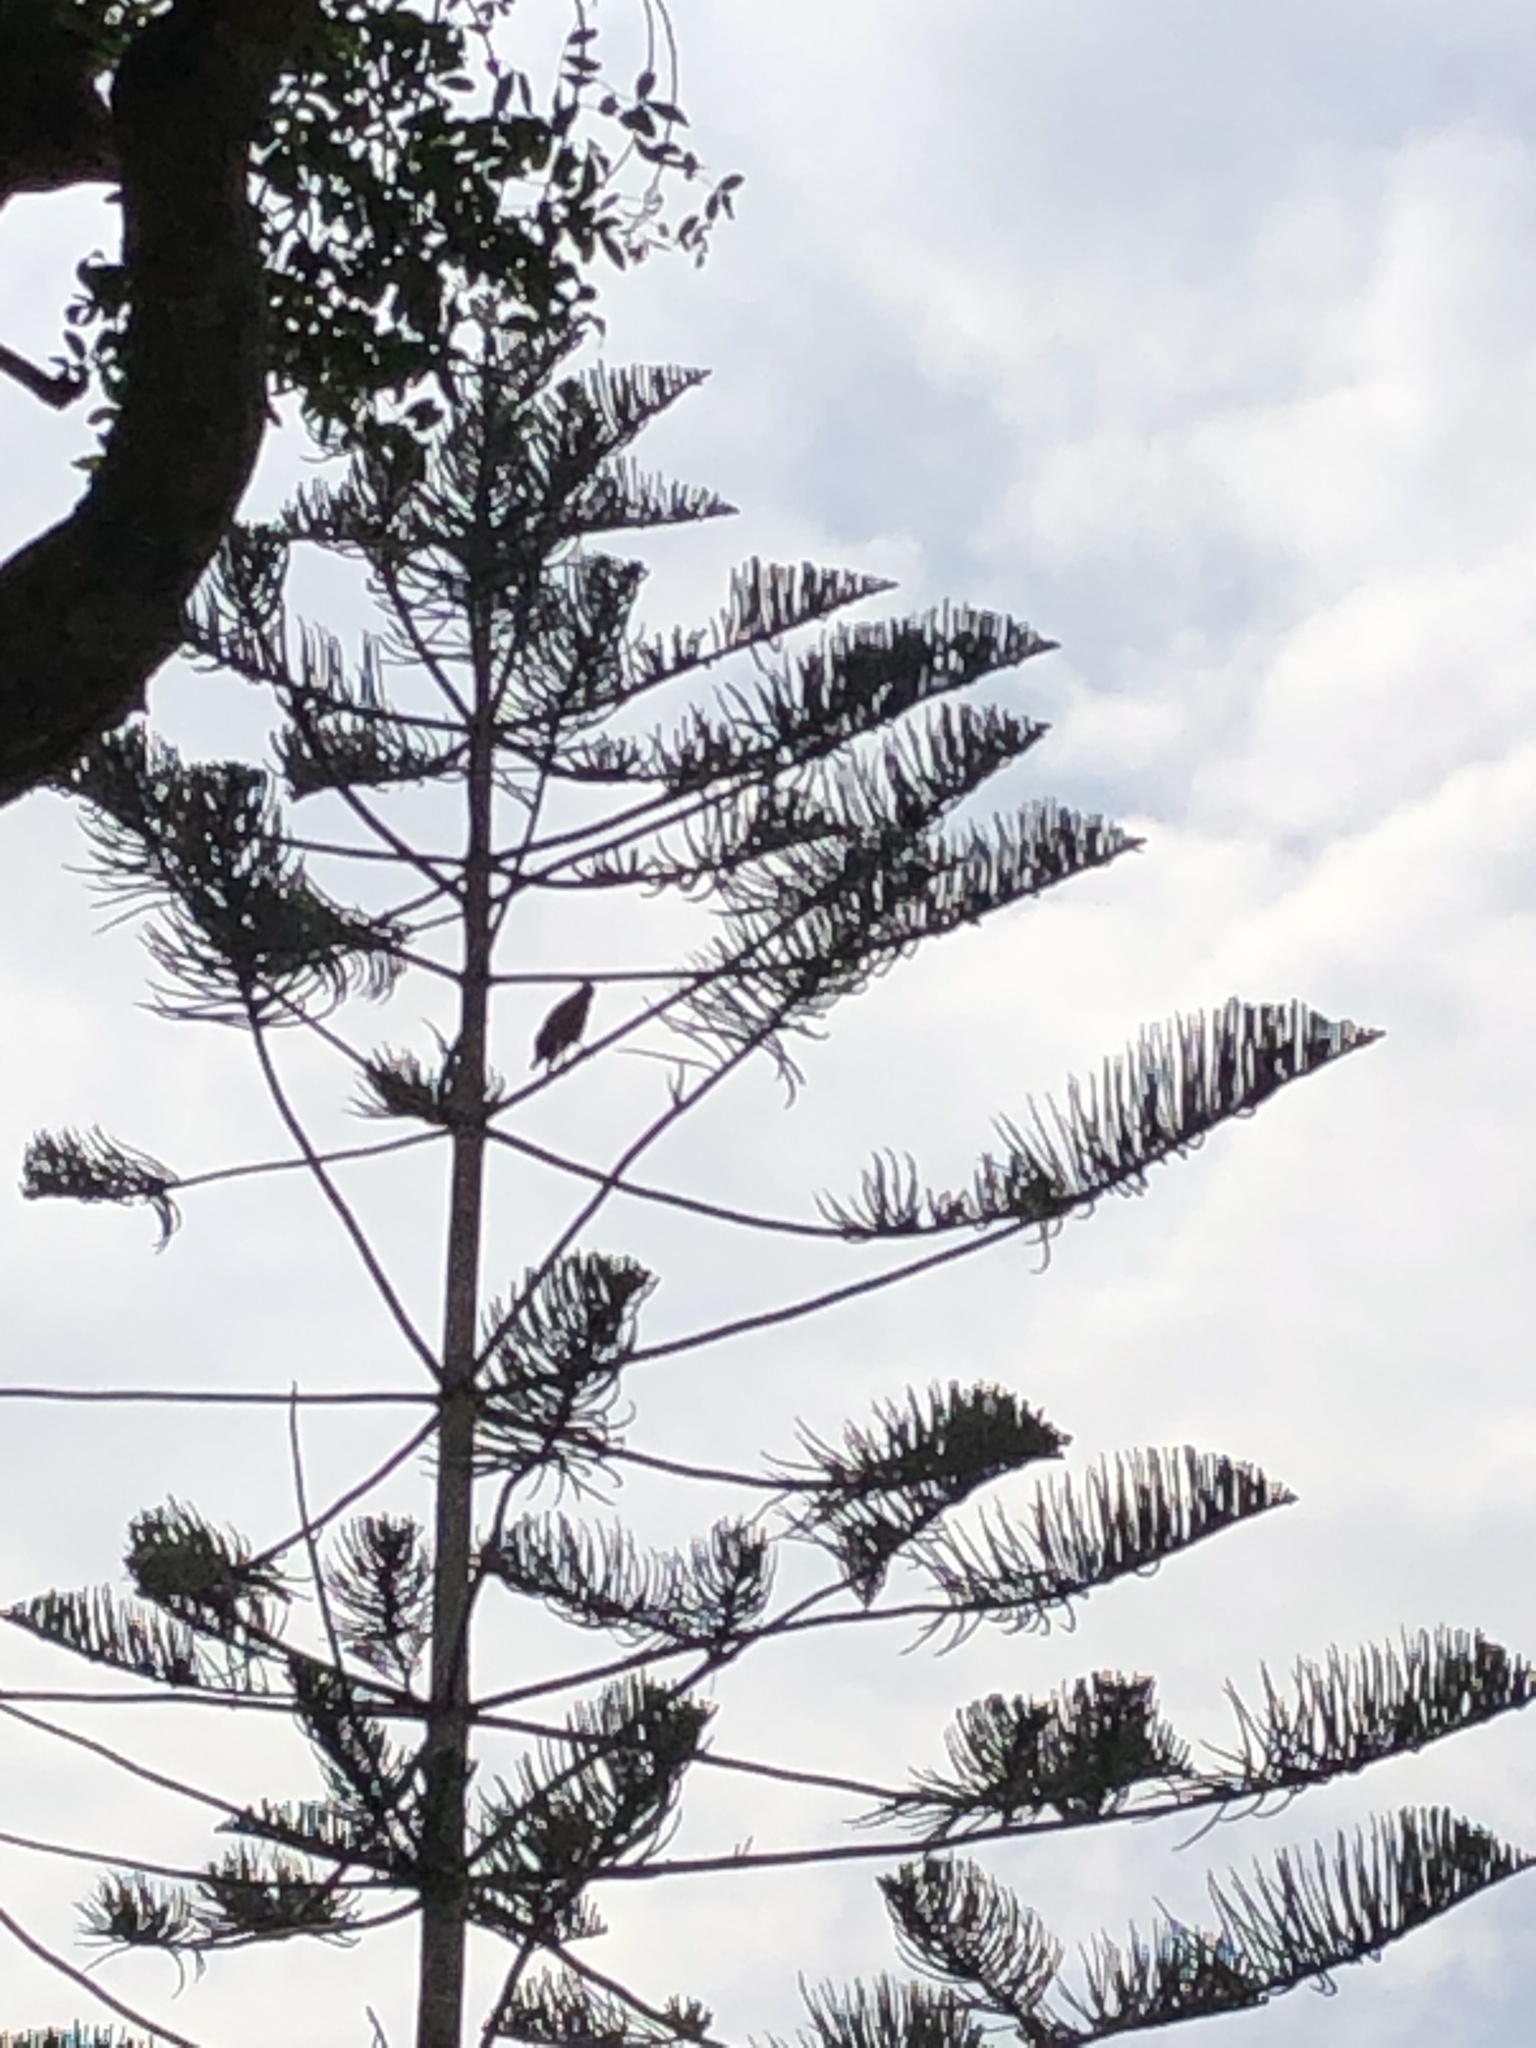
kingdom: Animalia
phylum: Chordata
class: Aves
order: Accipitriformes
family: Accipitridae
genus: Parabuteo
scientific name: Parabuteo unicinctus
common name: Harris's hawk
